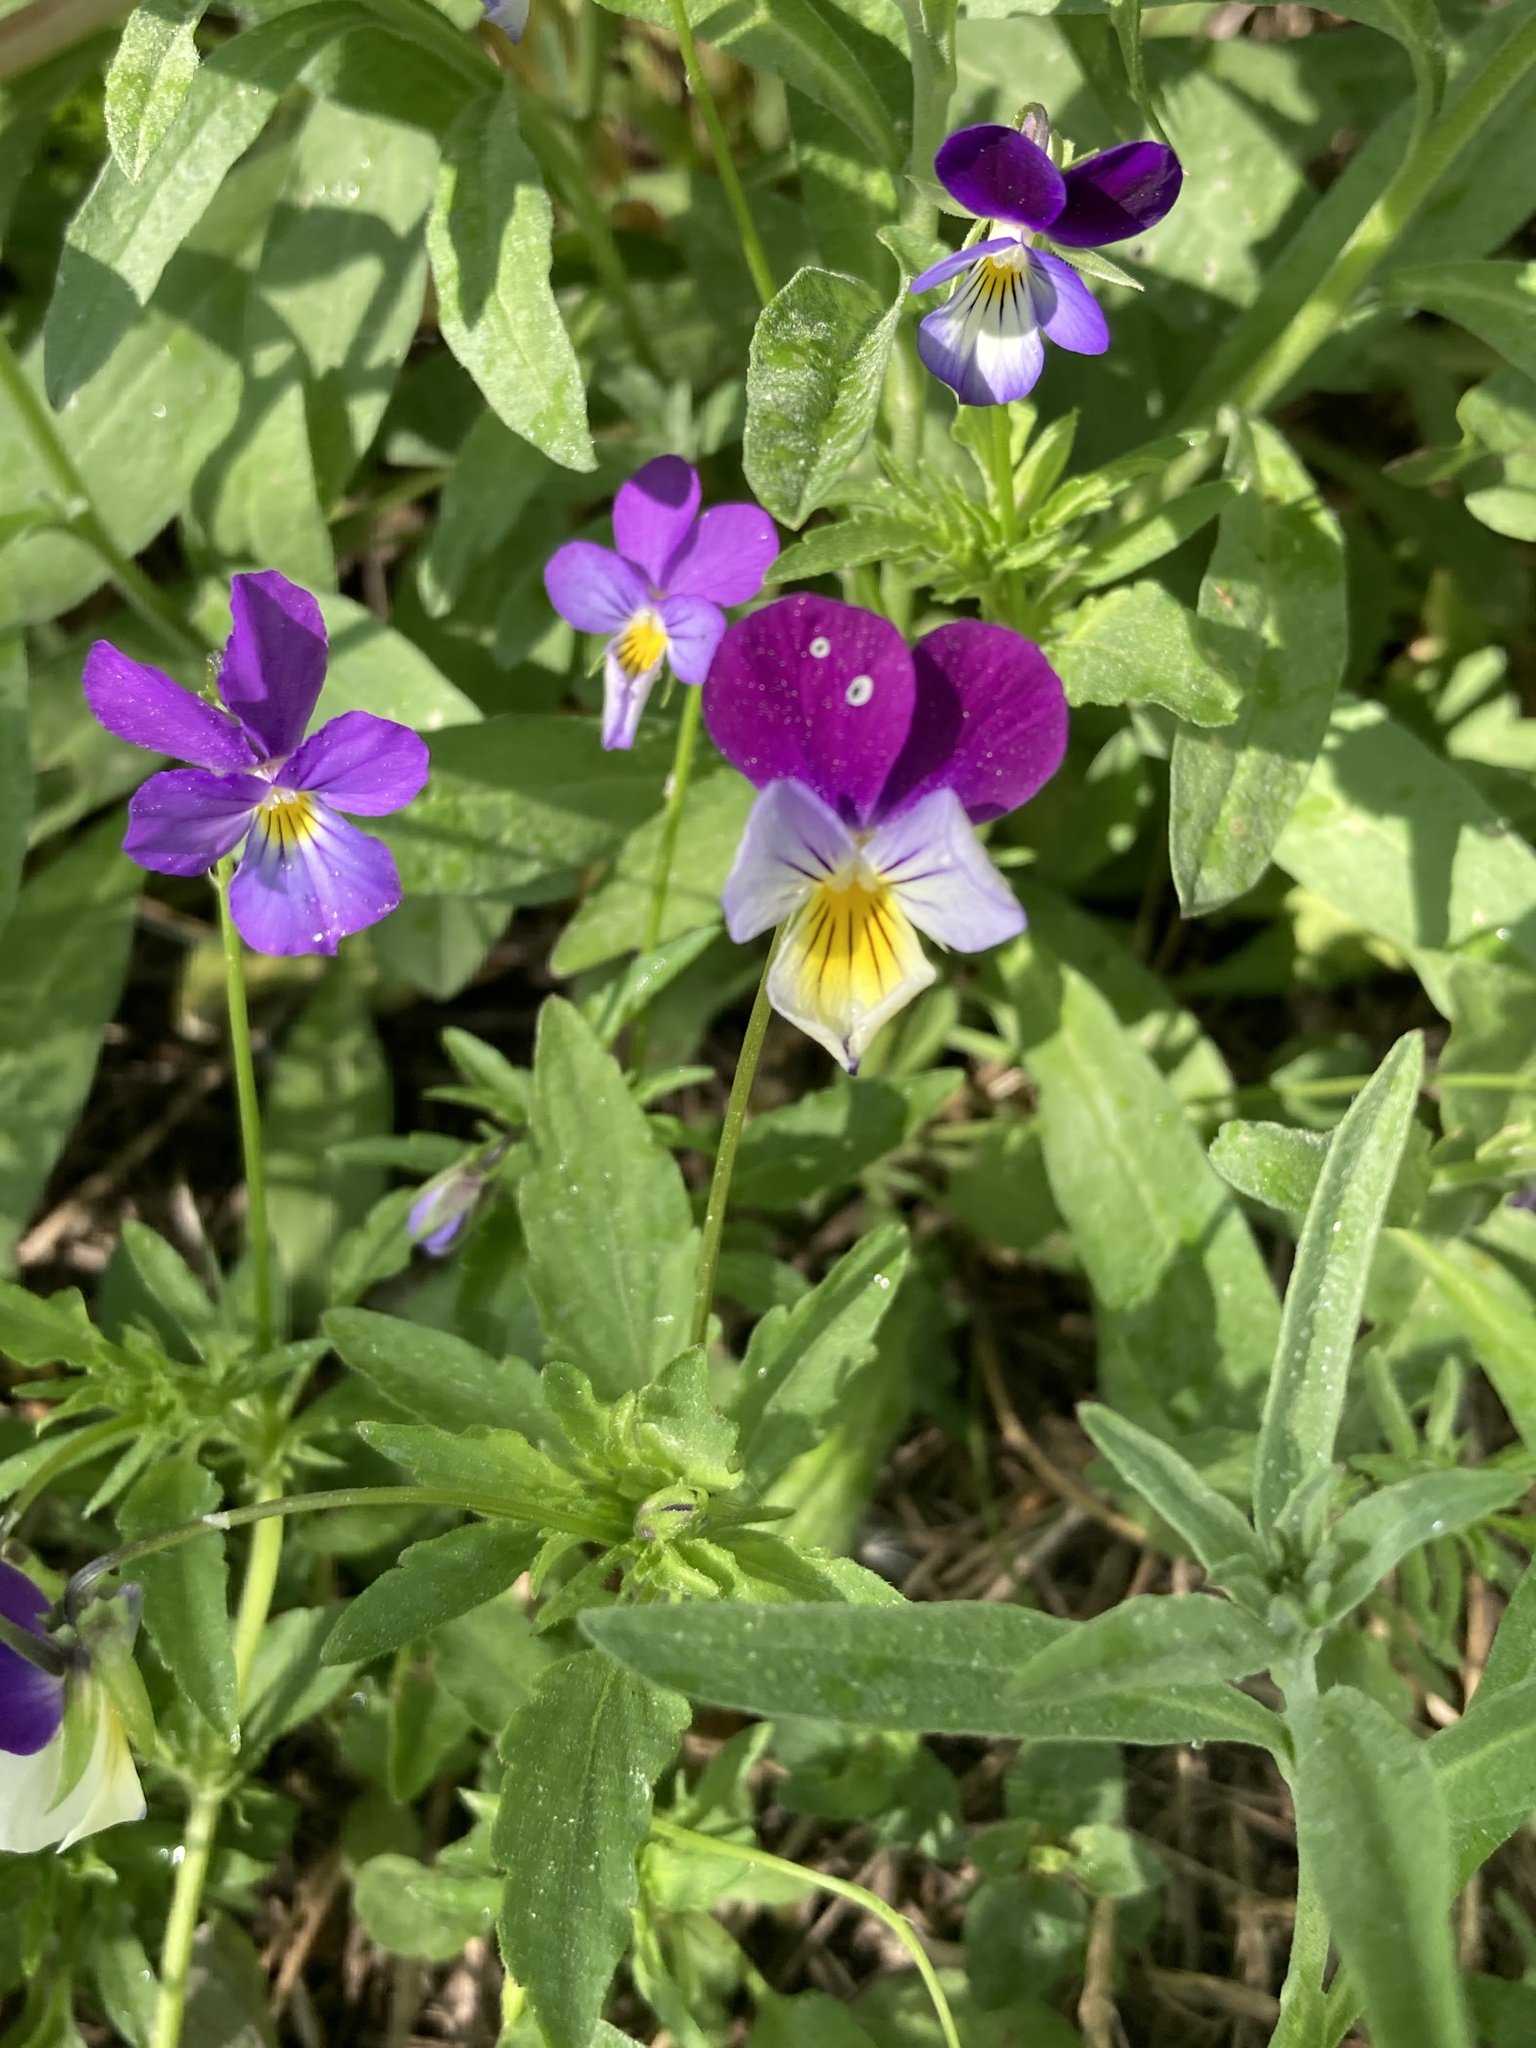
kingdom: Plantae
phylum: Tracheophyta
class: Magnoliopsida
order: Malpighiales
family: Violaceae
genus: Viola
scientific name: Viola tricolor
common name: Pansy
